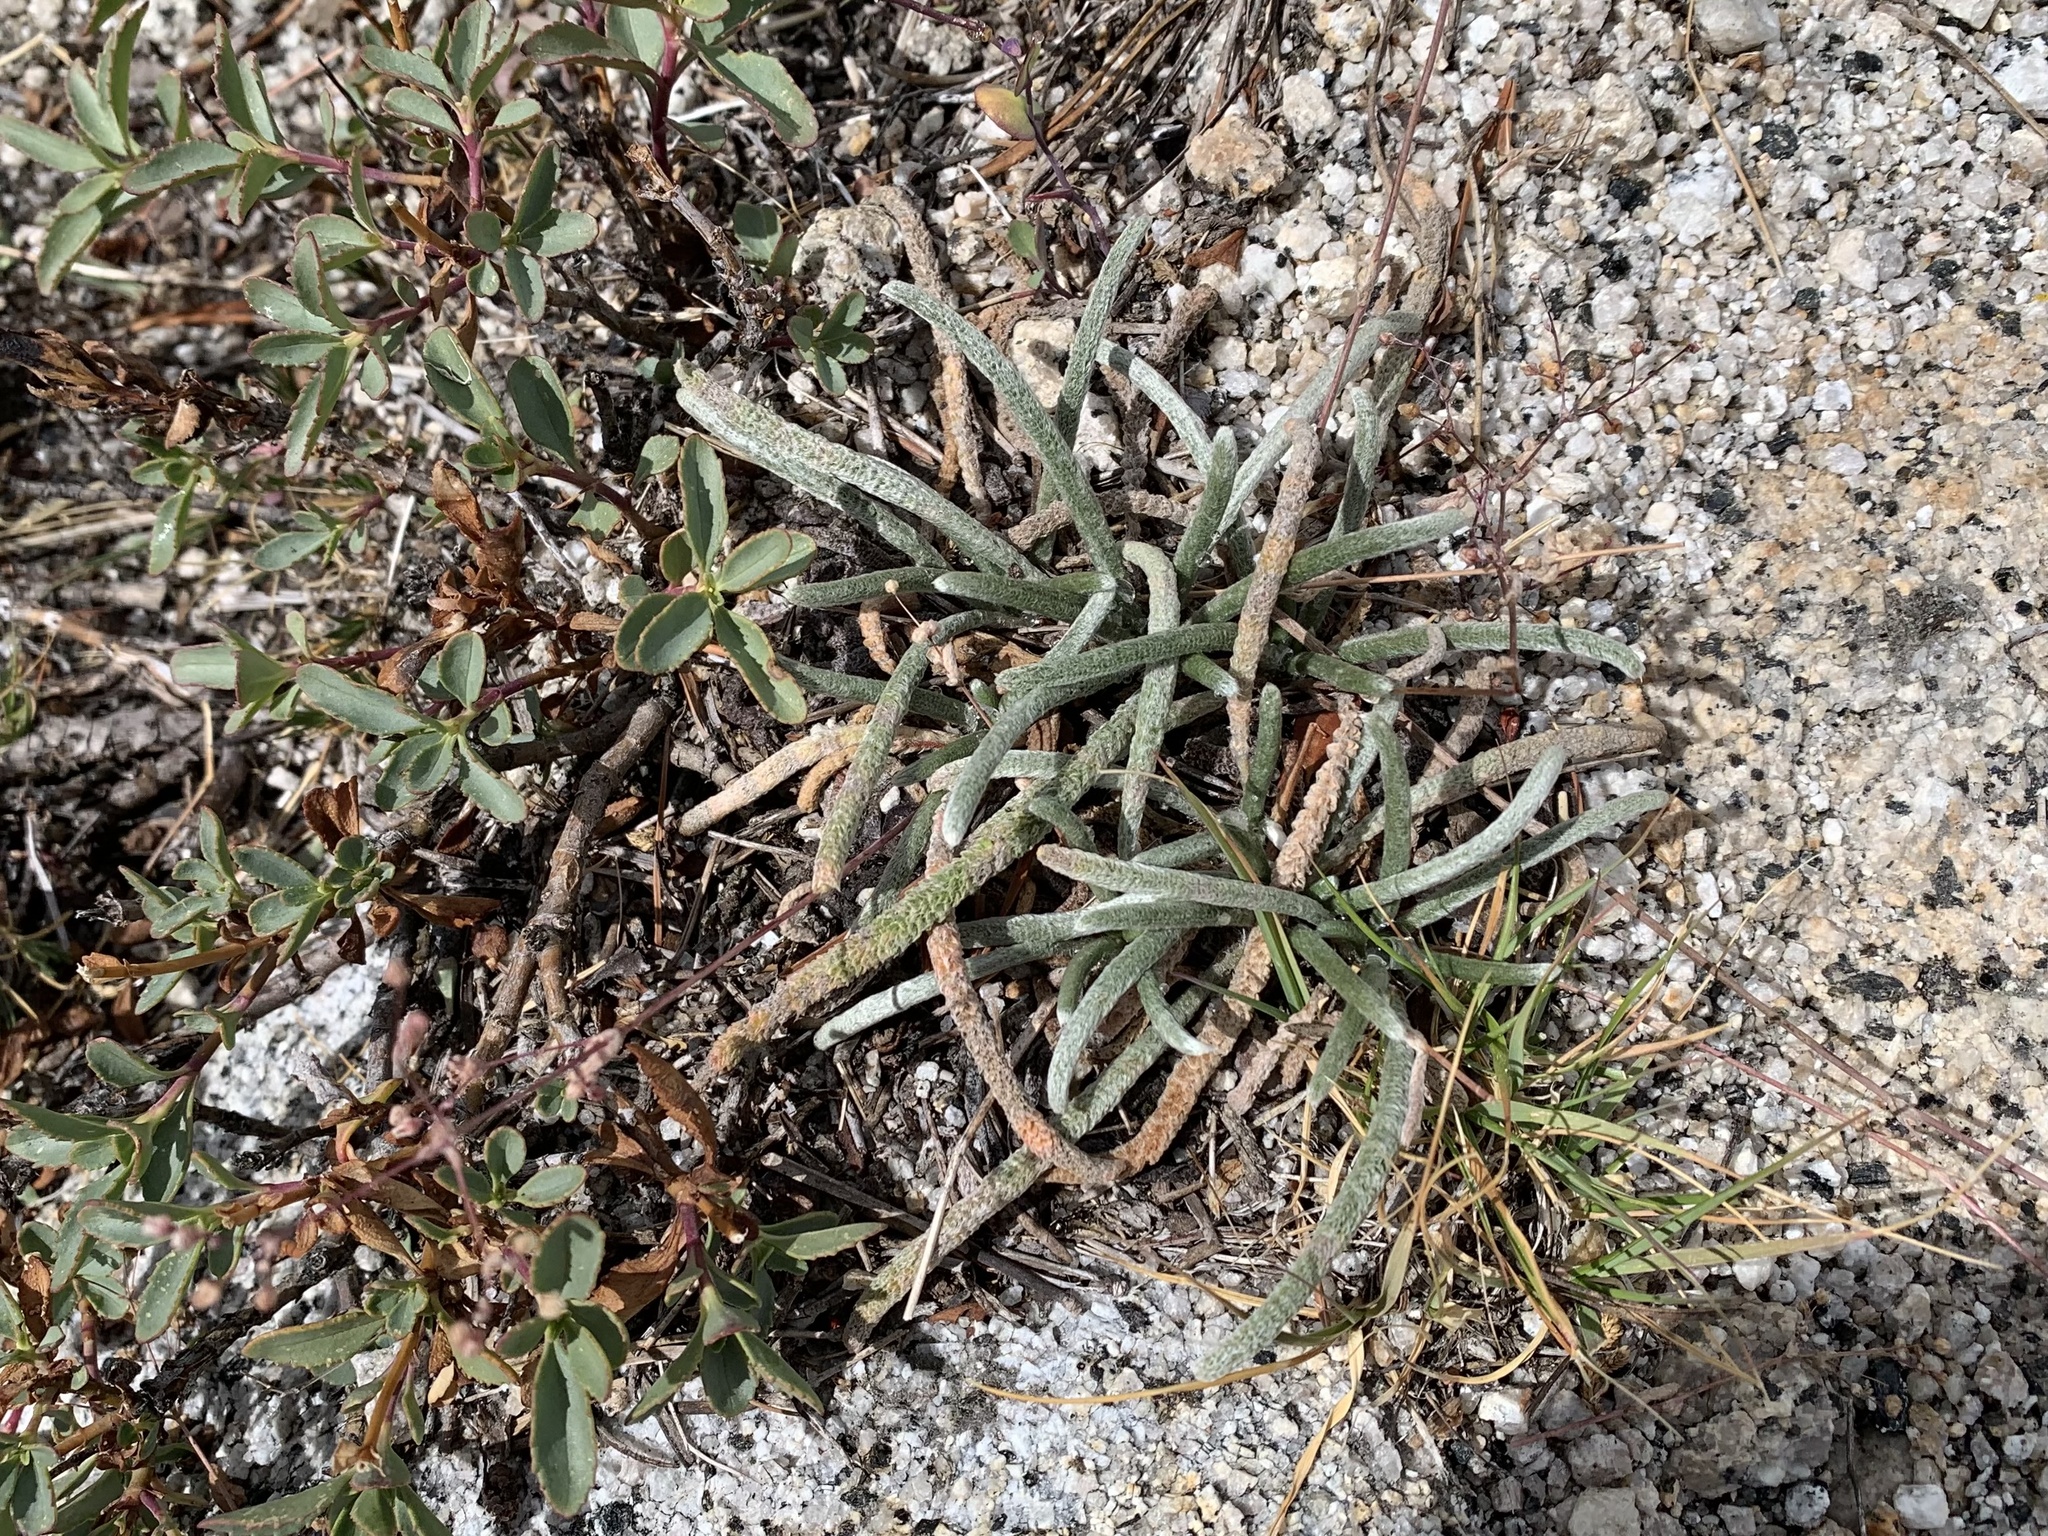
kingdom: Plantae
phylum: Tracheophyta
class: Magnoliopsida
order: Rosales
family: Rosaceae
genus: Potentilla
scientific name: Potentilla santolinoides
